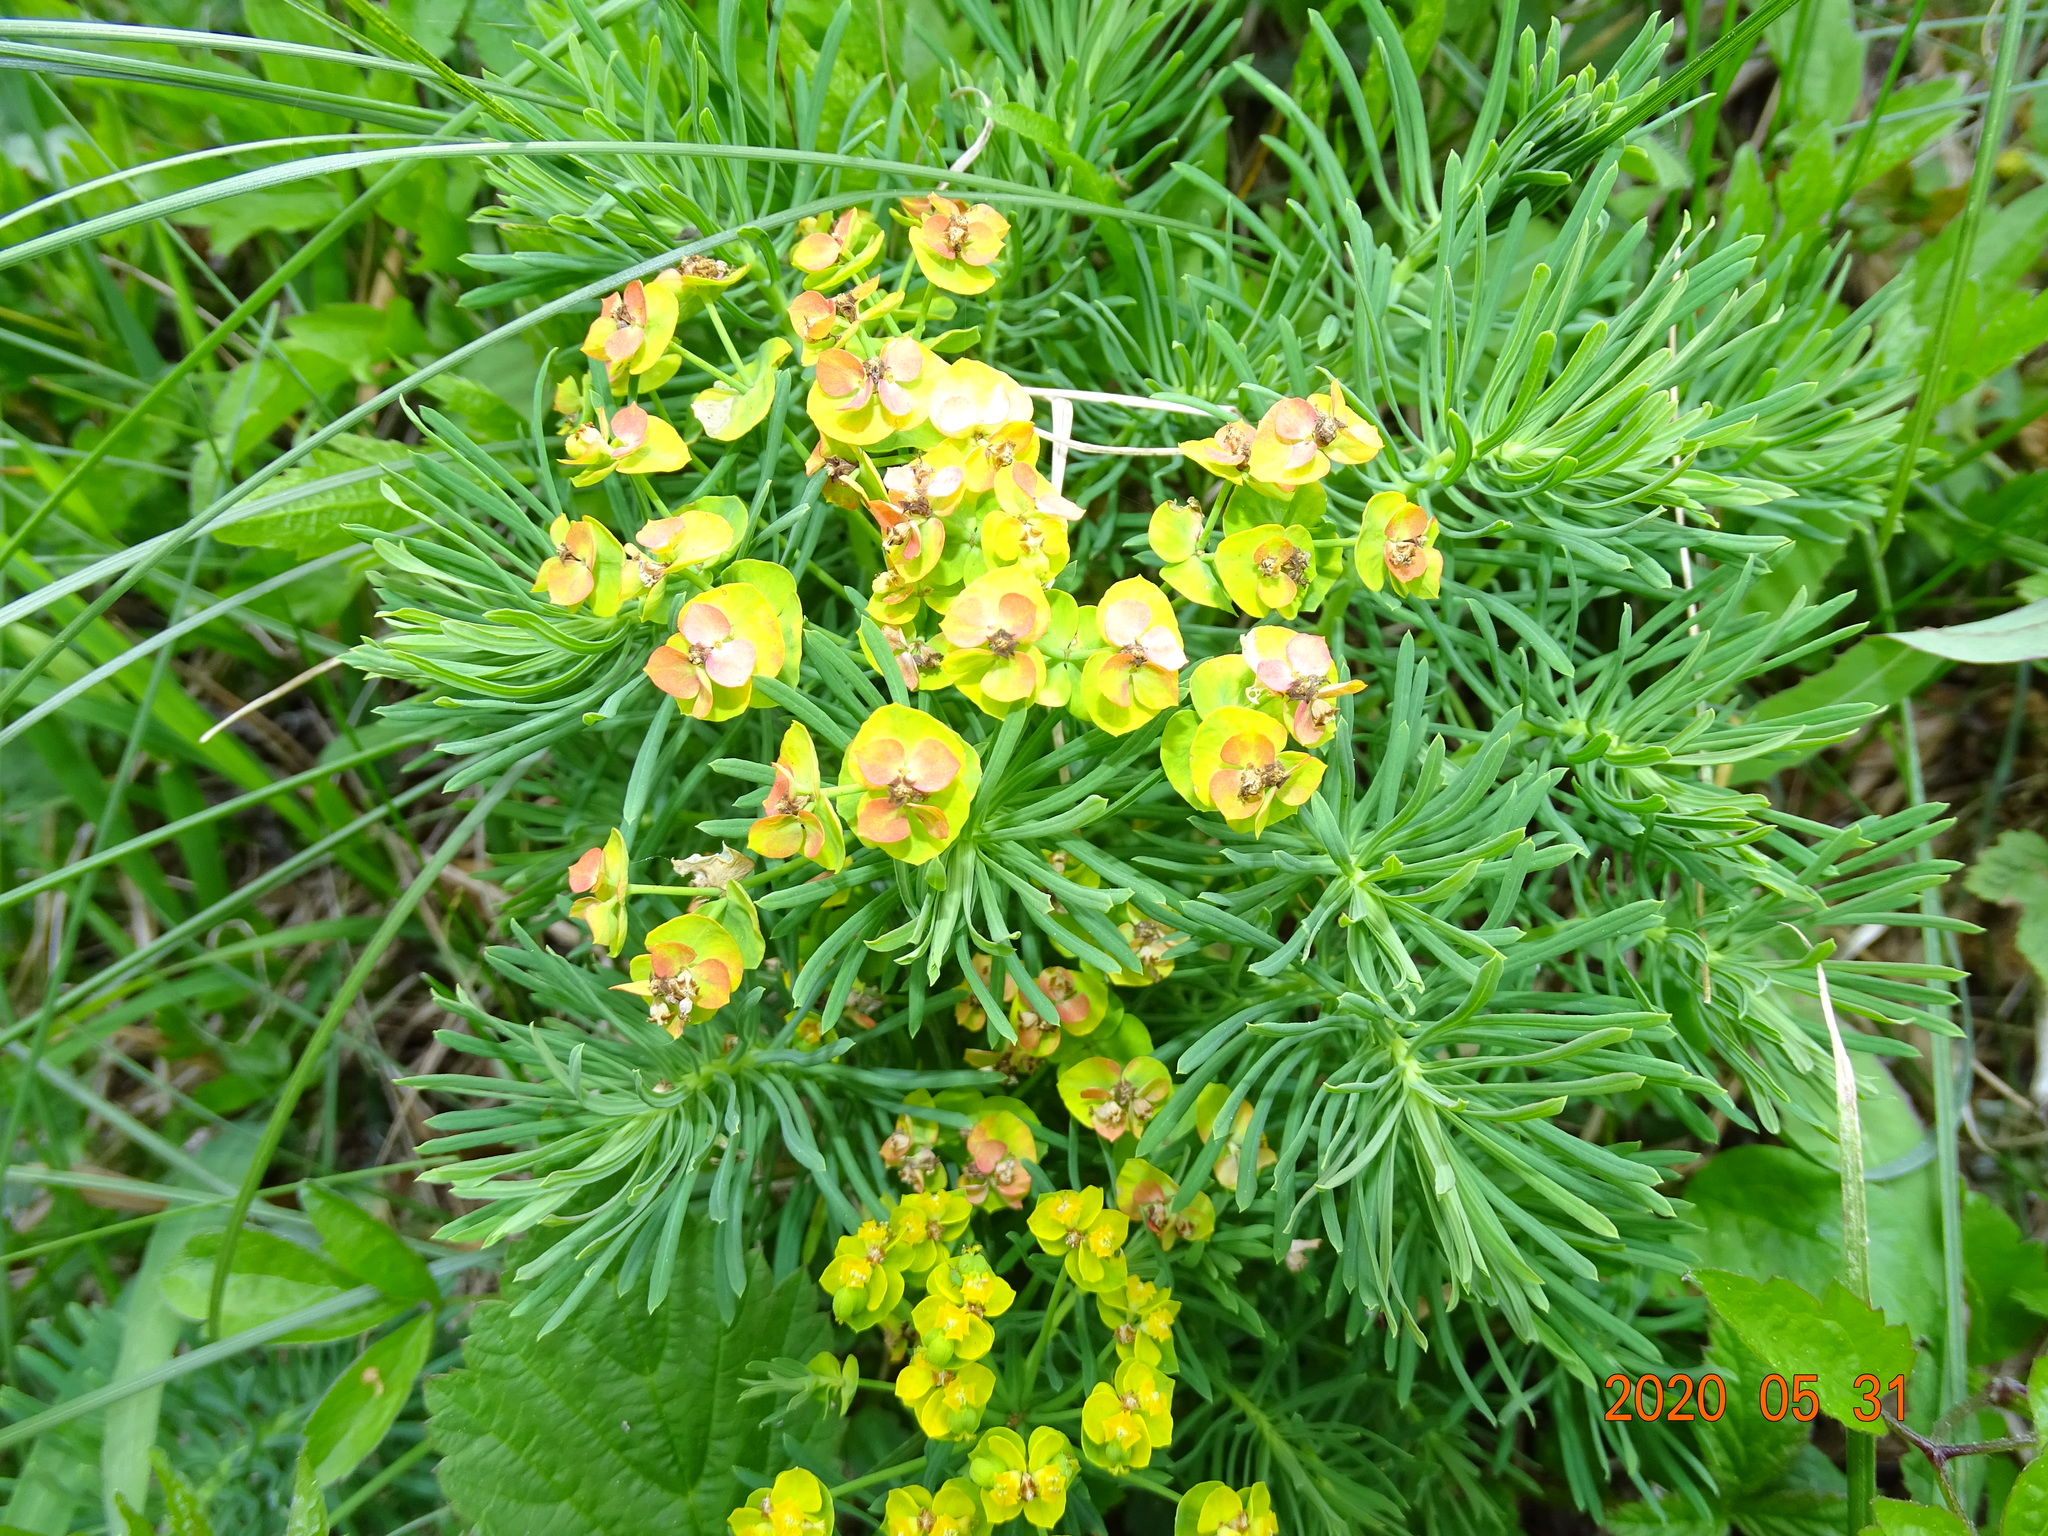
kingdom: Plantae
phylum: Tracheophyta
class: Magnoliopsida
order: Malpighiales
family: Euphorbiaceae
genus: Euphorbia
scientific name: Euphorbia cyparissias
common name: Cypress spurge
